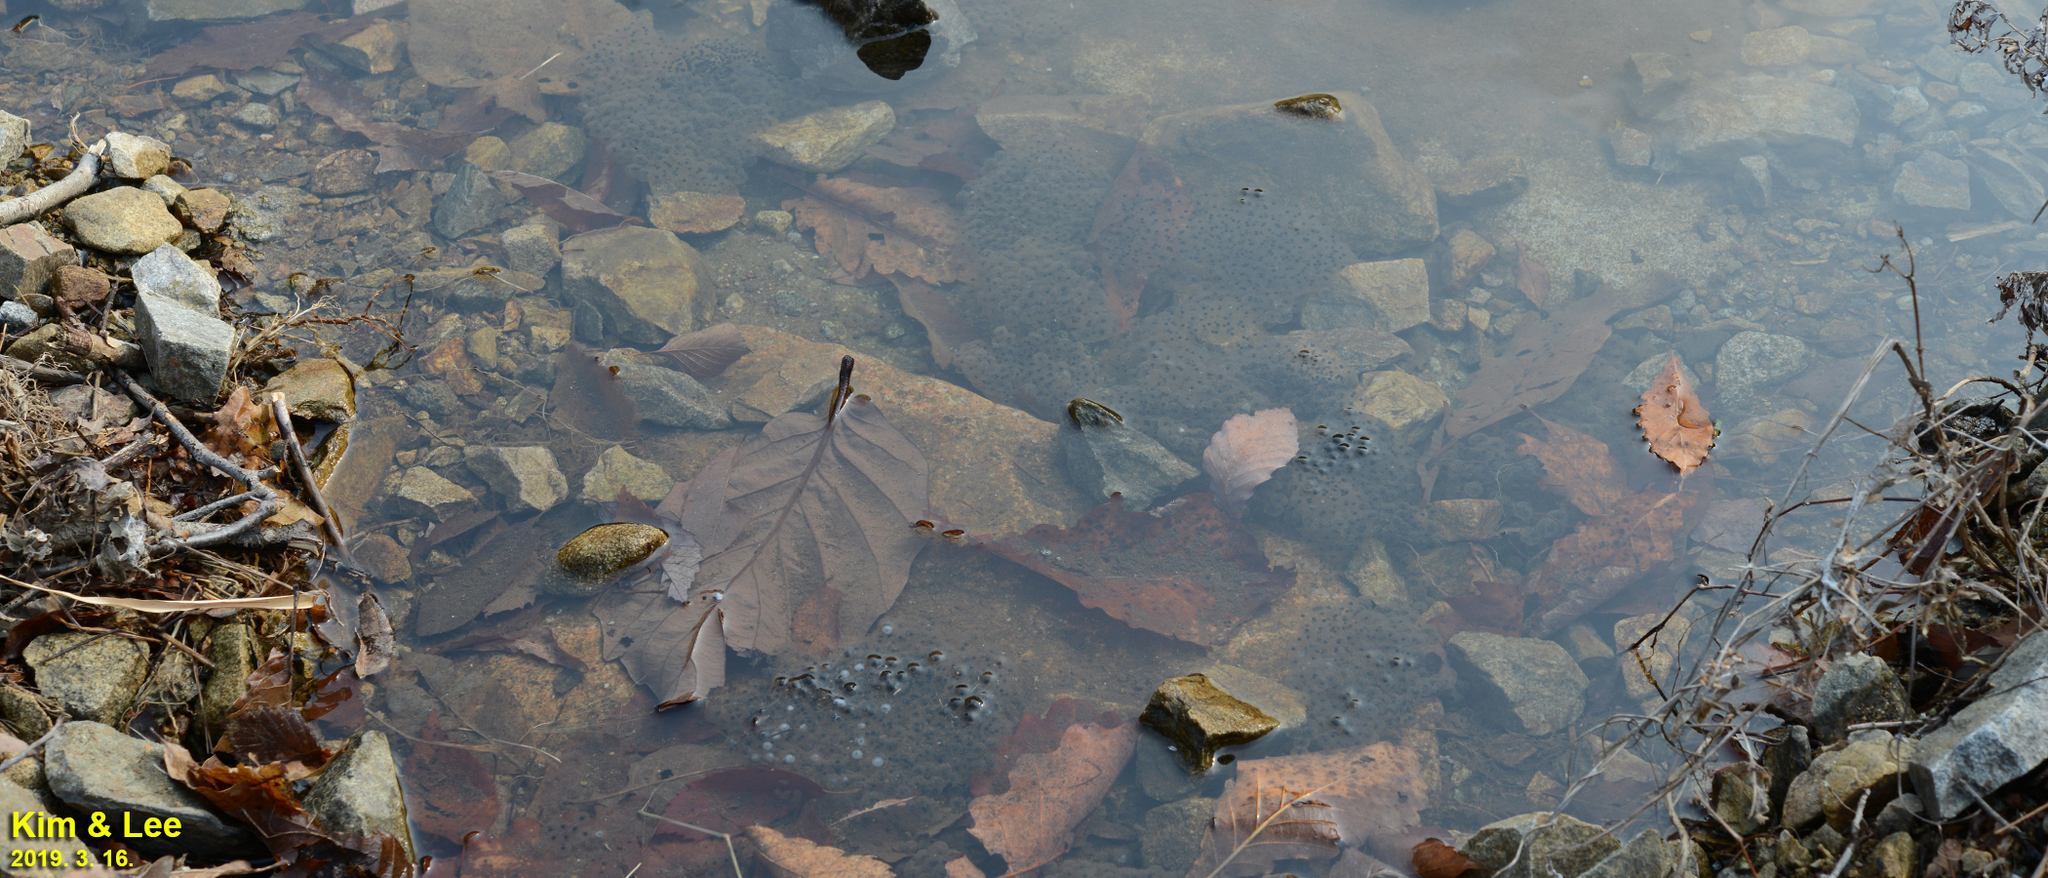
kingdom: Animalia
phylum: Chordata
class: Amphibia
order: Anura
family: Ranidae
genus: Rana
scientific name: Rana huanrenensis
